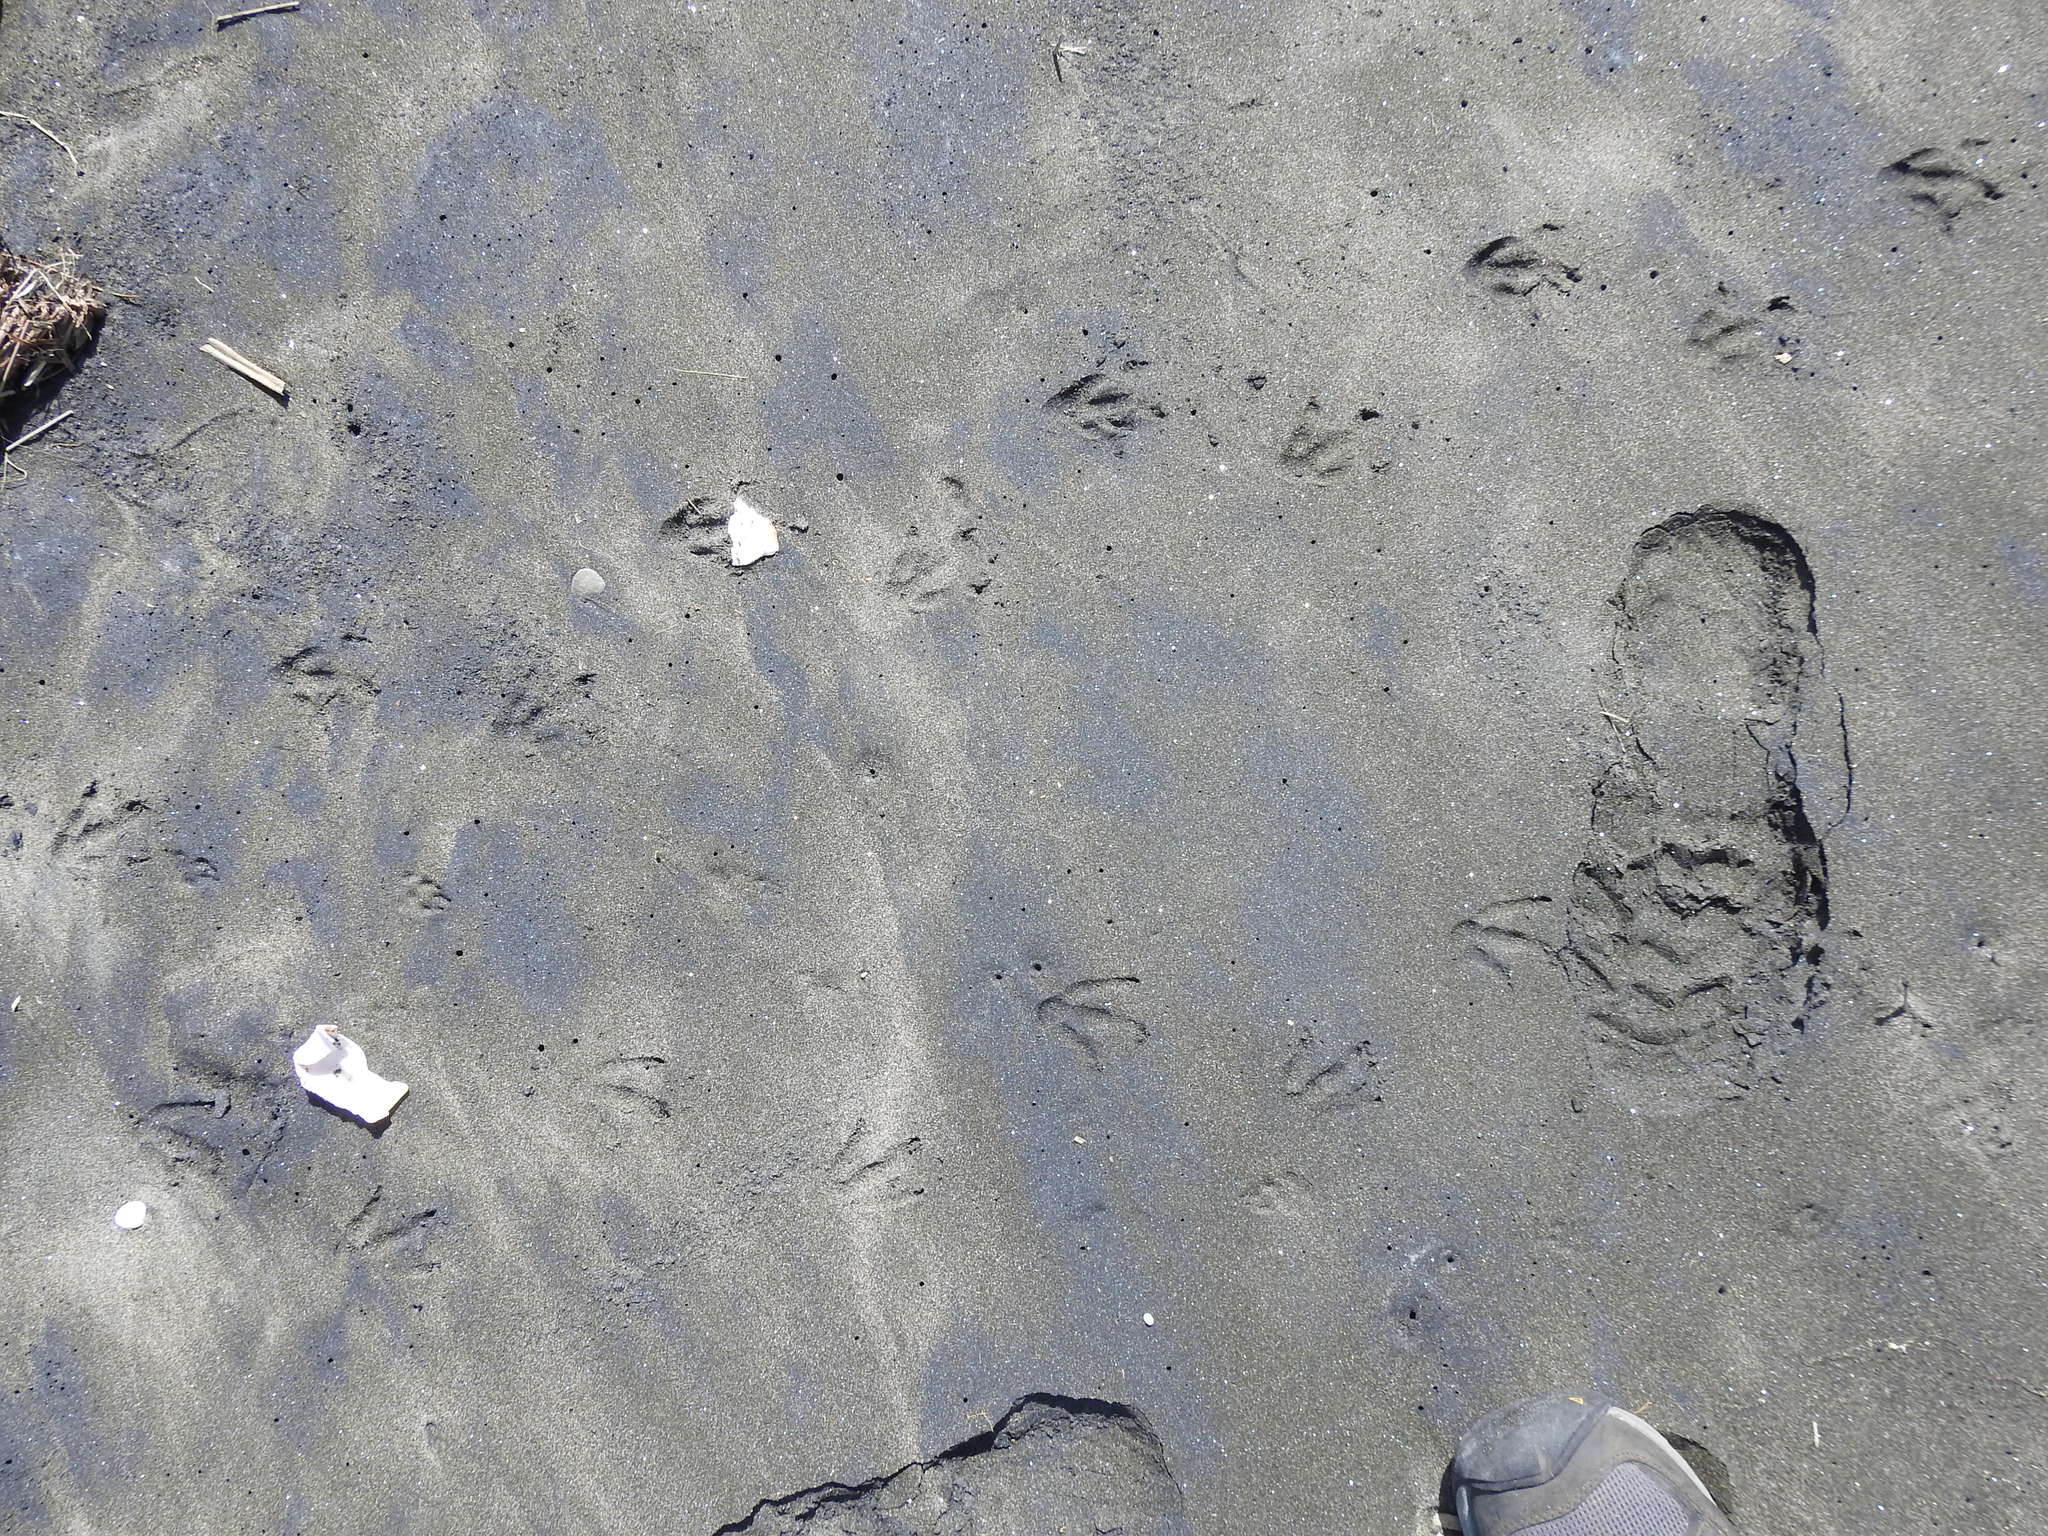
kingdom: Animalia
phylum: Chordata
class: Aves
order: Sphenisciformes
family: Spheniscidae
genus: Eudyptula
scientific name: Eudyptula minor
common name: Little penguin
